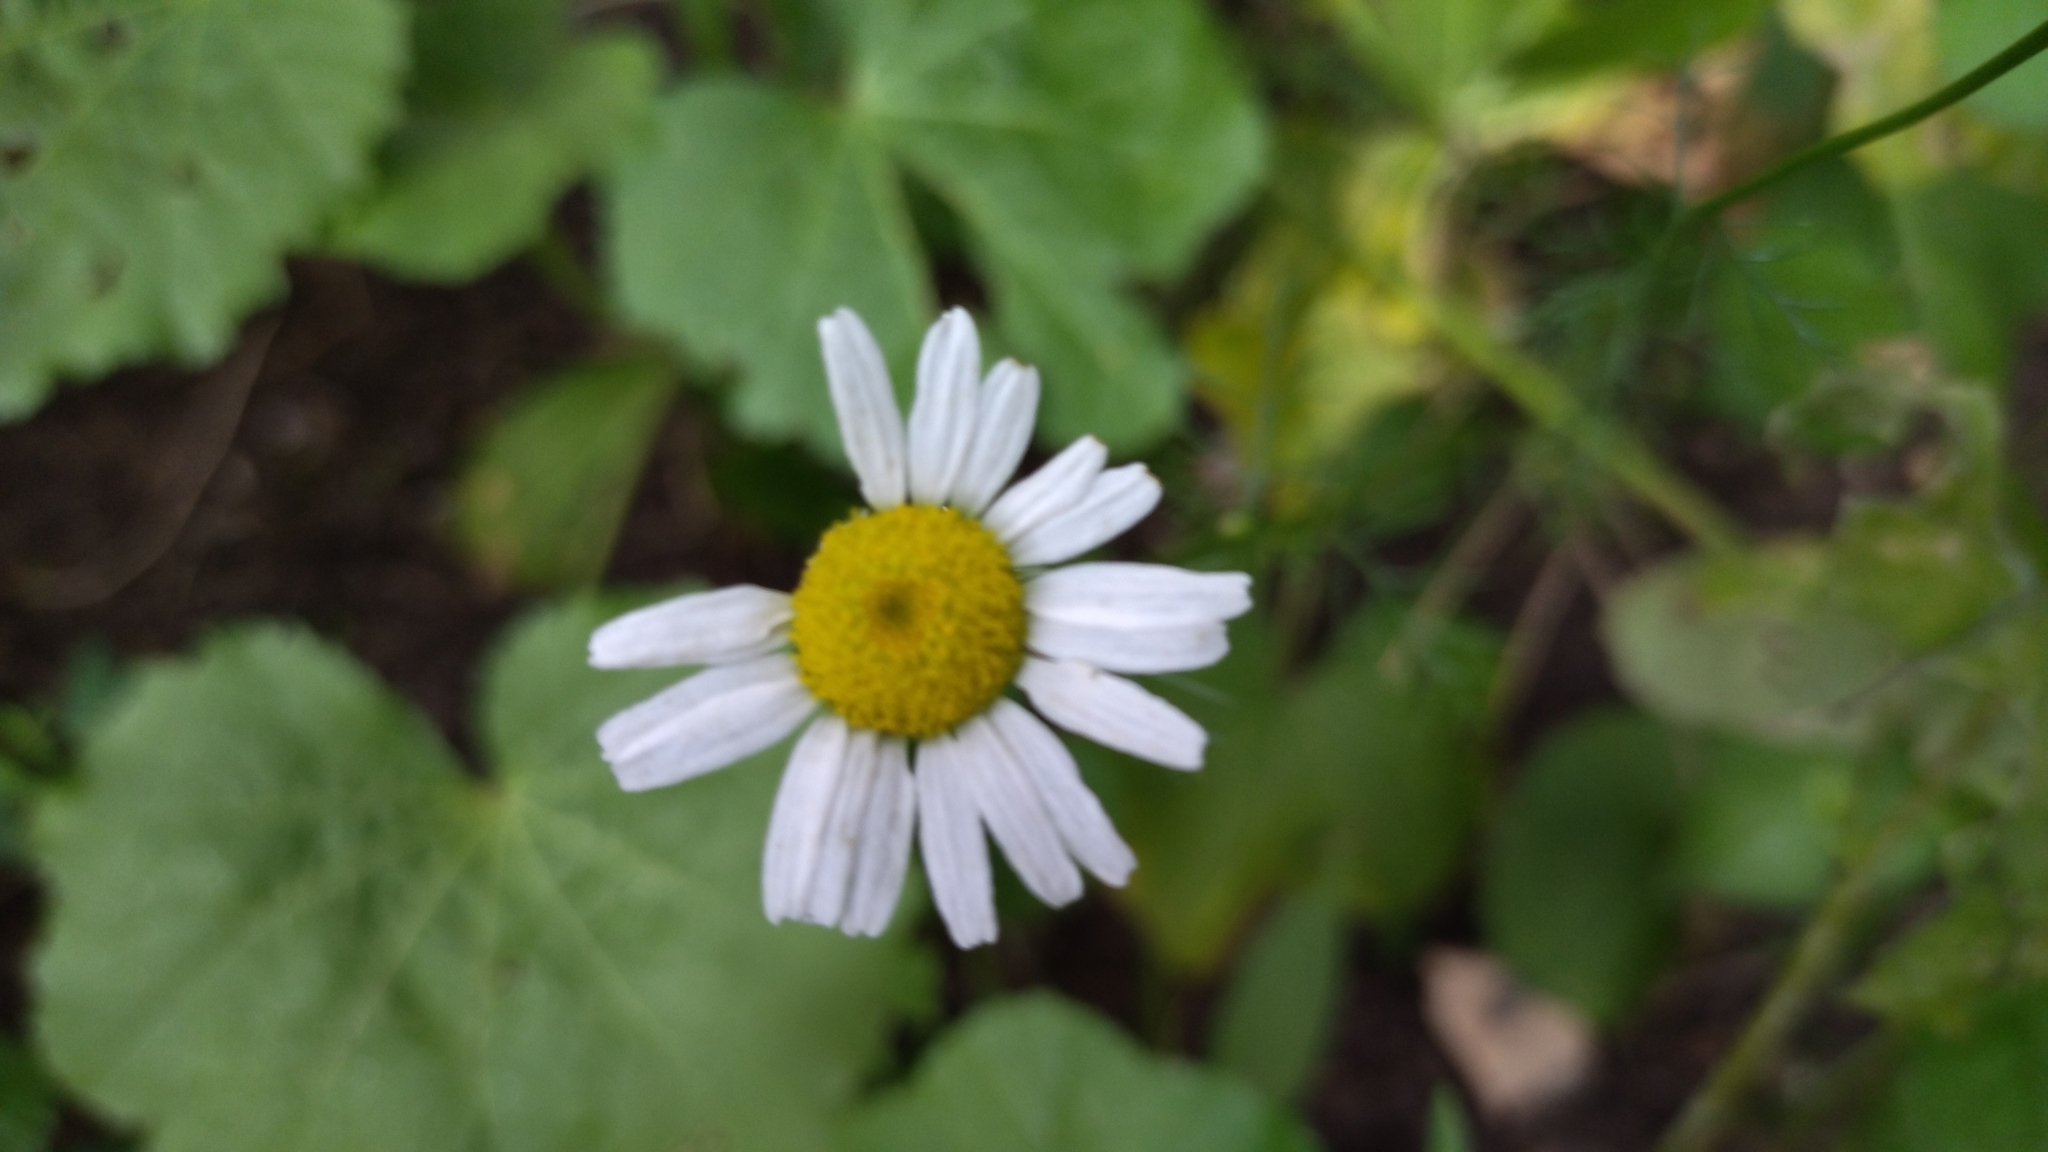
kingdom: Plantae
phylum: Tracheophyta
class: Magnoliopsida
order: Asterales
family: Asteraceae
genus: Tripleurospermum
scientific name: Tripleurospermum inodorum
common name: Scentless mayweed
